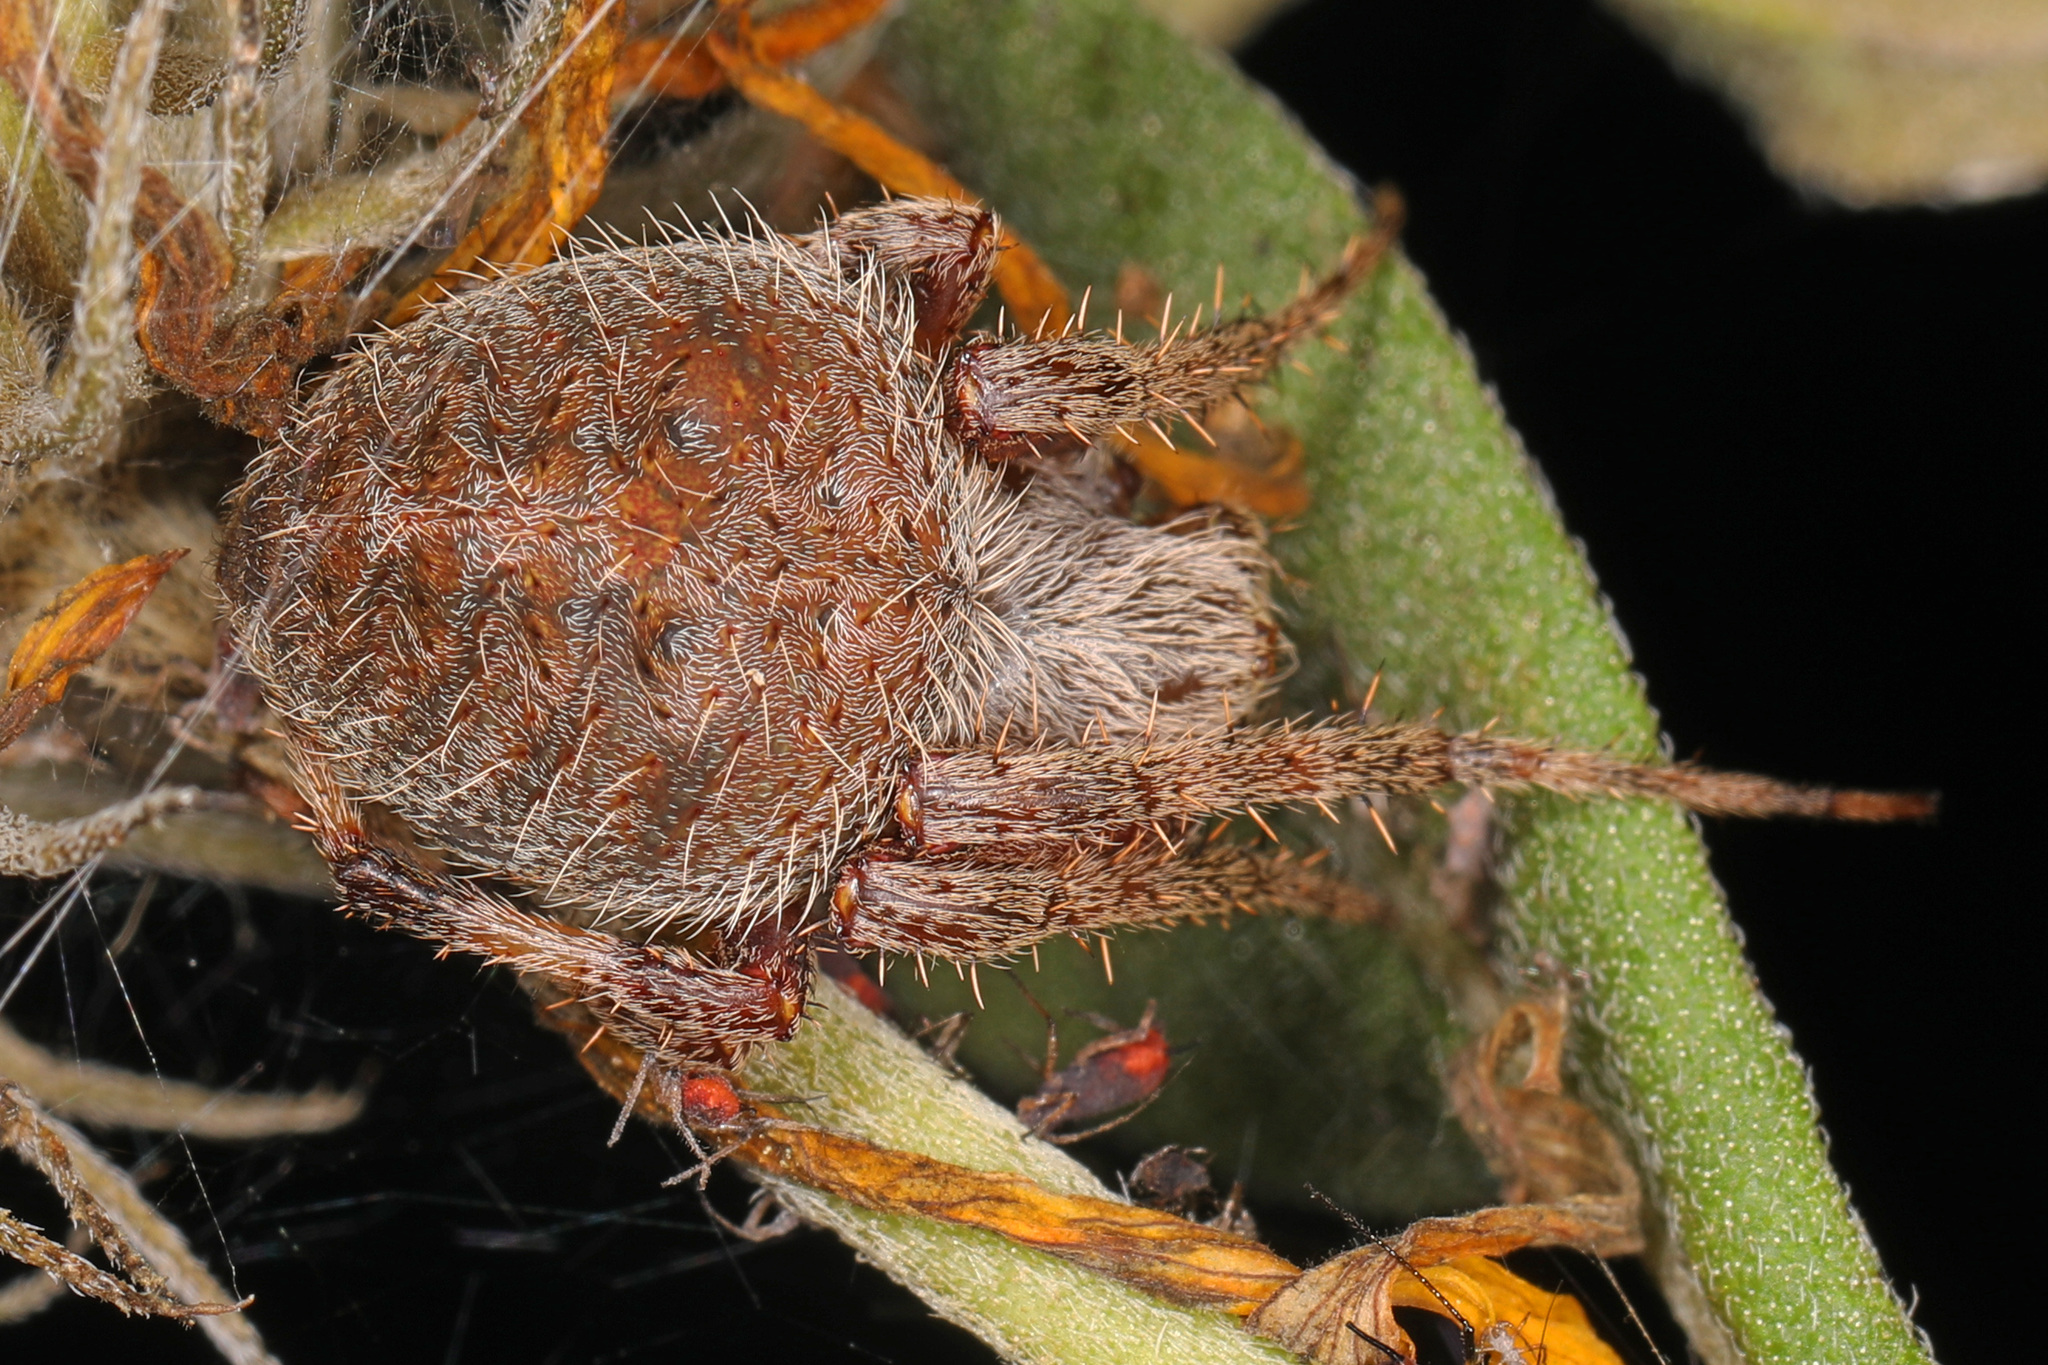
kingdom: Animalia
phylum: Arthropoda
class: Arachnida
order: Araneae
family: Araneidae
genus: Neoscona
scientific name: Neoscona crucifera
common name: Spotted orbweaver
